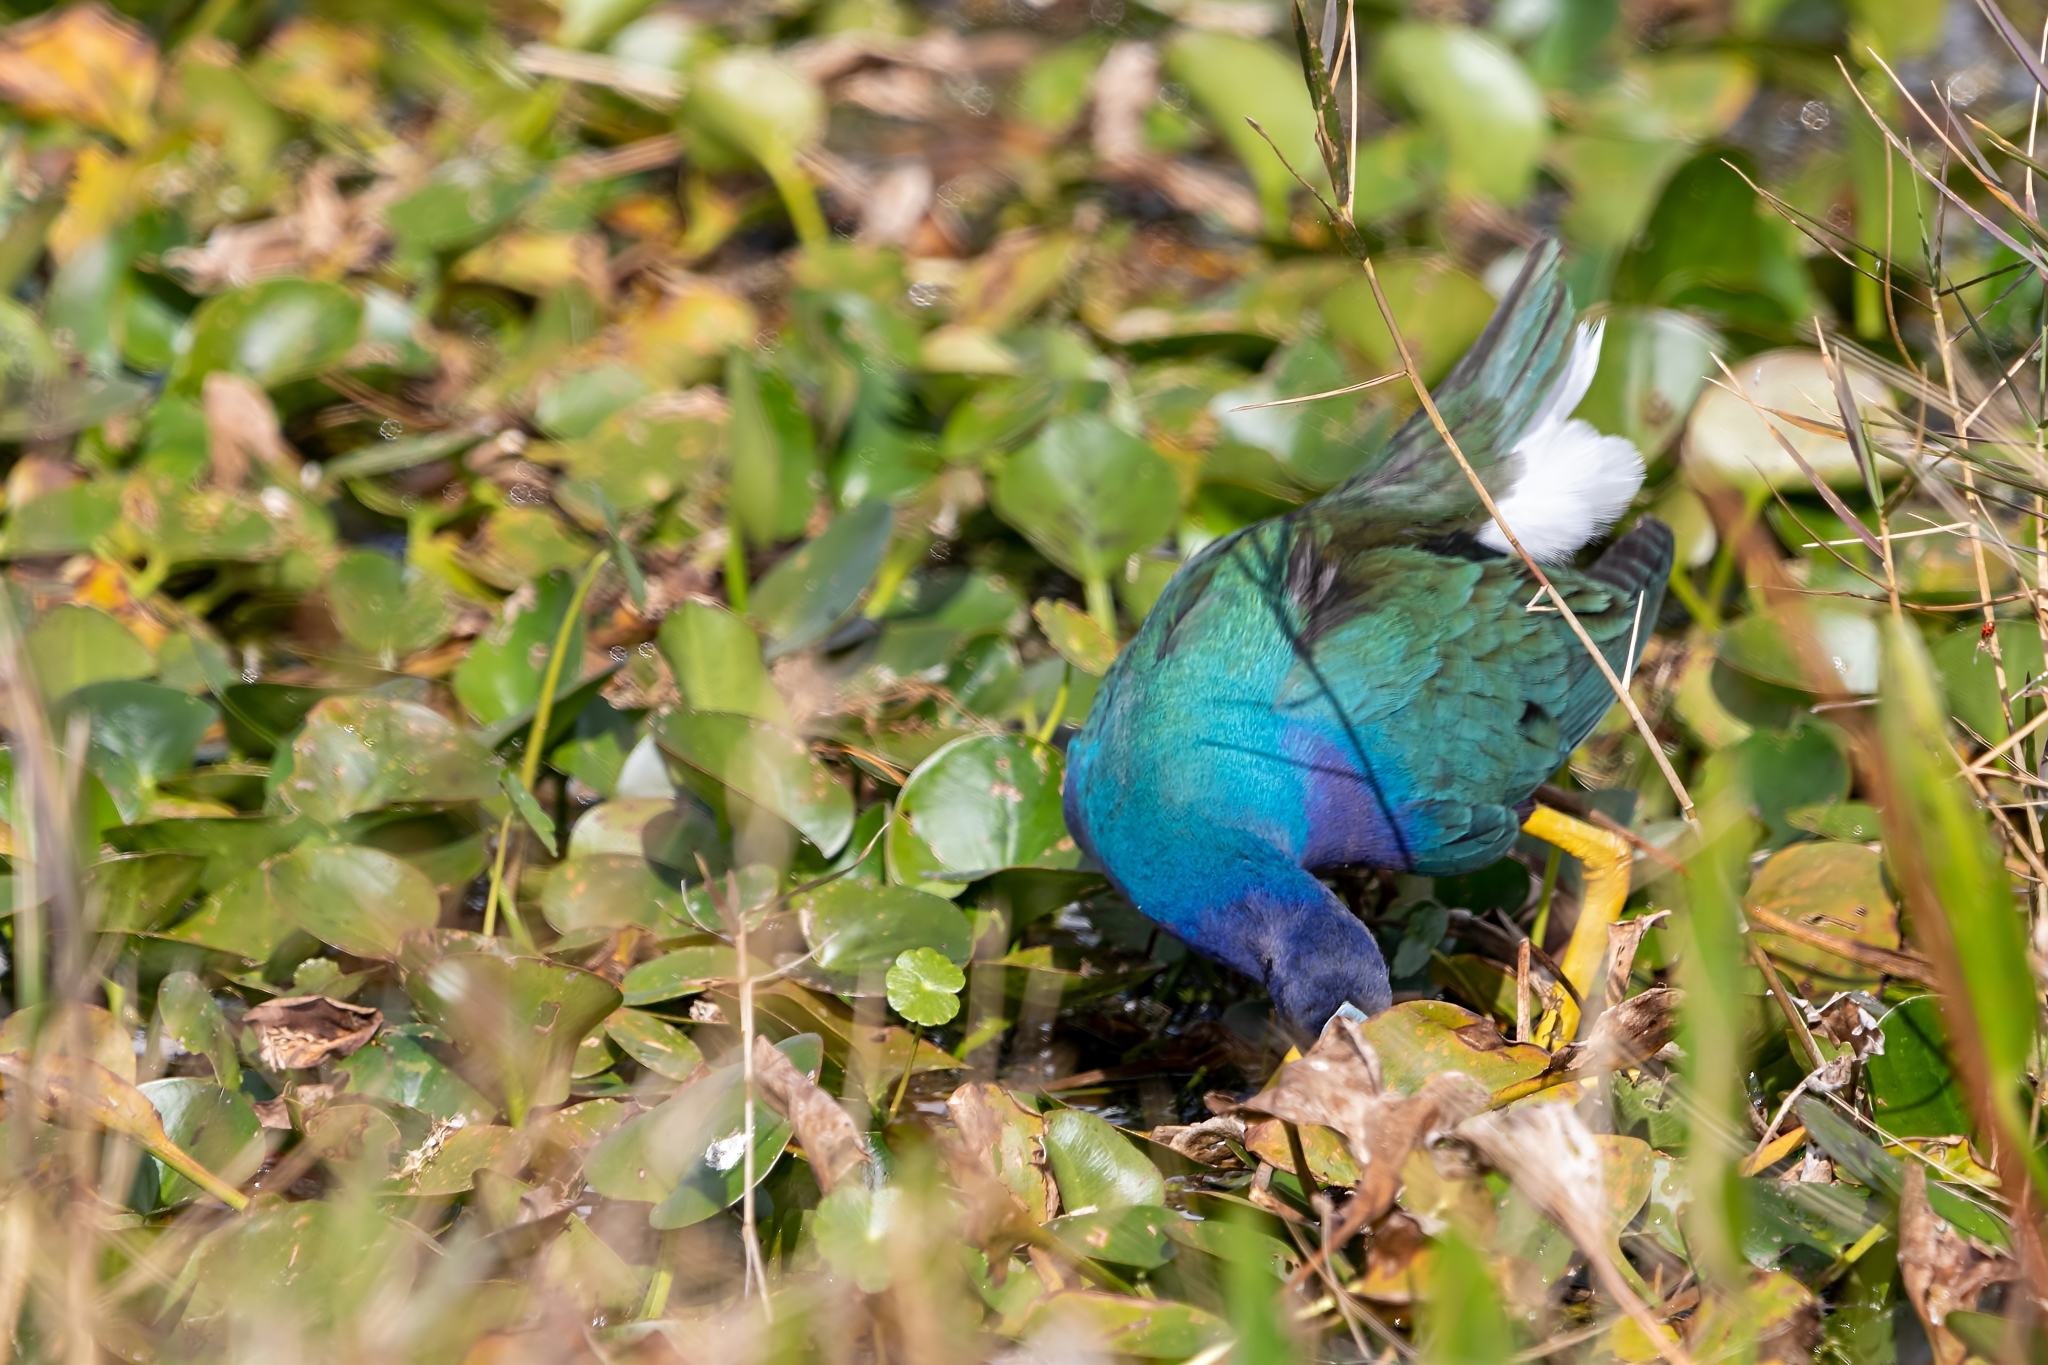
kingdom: Animalia
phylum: Chordata
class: Aves
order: Gruiformes
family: Rallidae
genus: Porphyrio
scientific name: Porphyrio martinica
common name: Purple gallinule
